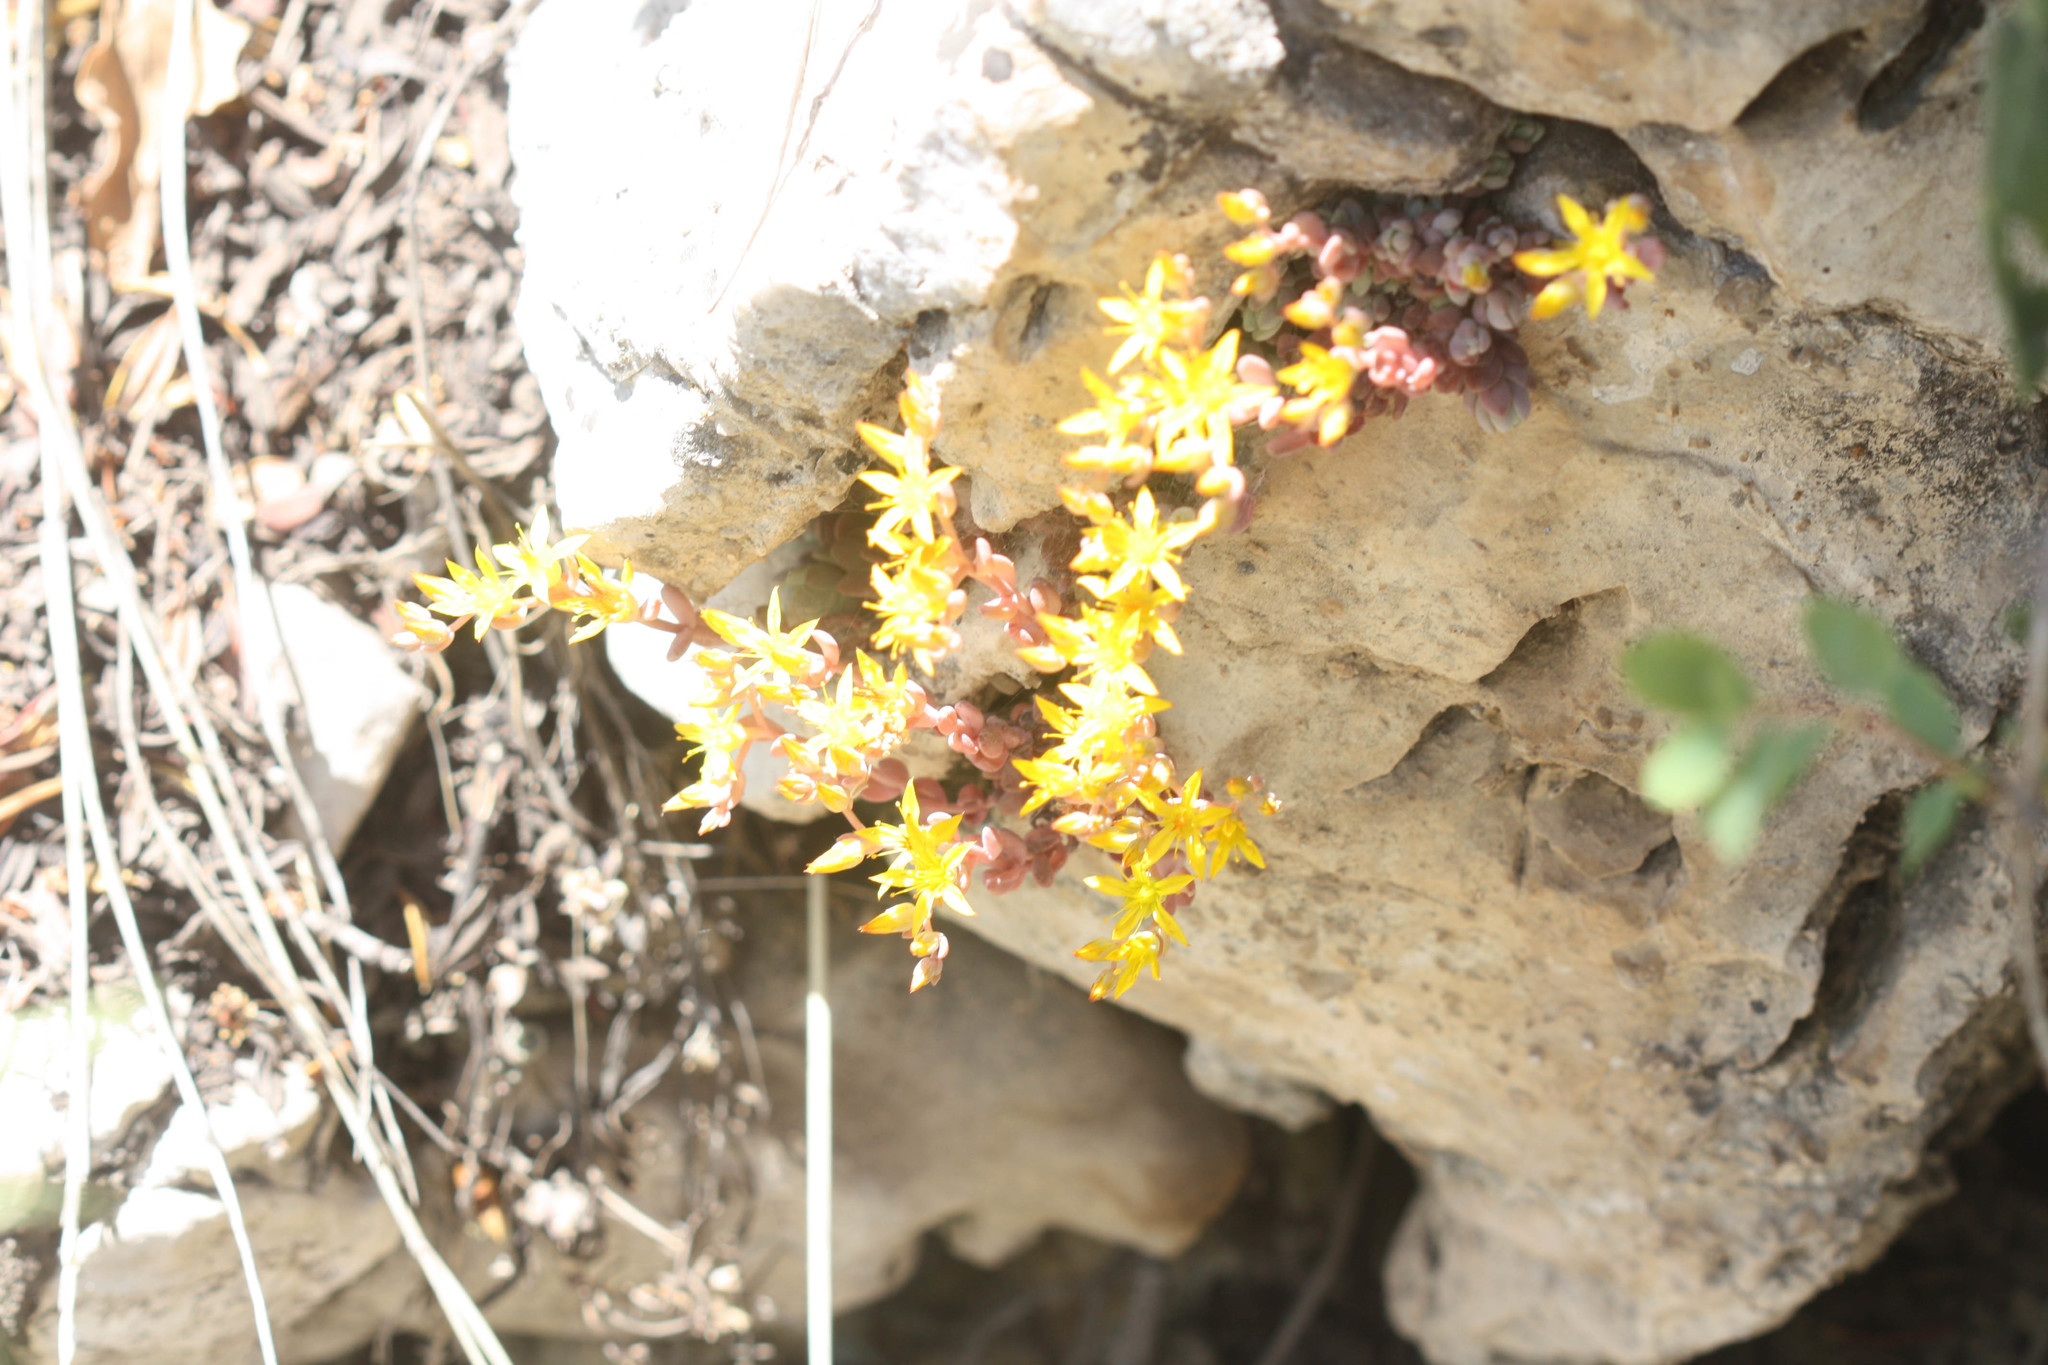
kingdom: Plantae
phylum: Tracheophyta
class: Magnoliopsida
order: Saxifragales
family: Crassulaceae
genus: Sedum
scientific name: Sedum debile
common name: Weak-stem stonecrop
